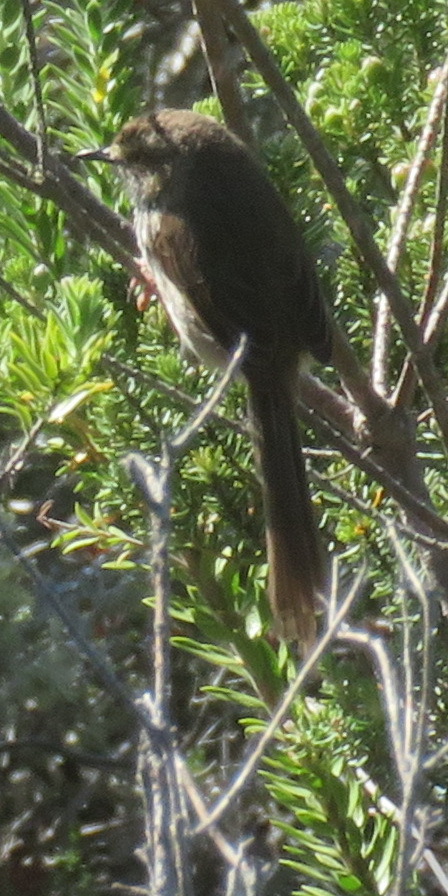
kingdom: Animalia
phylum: Chordata
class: Aves
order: Passeriformes
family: Cisticolidae
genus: Prinia
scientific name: Prinia maculosa
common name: Karoo prinia
